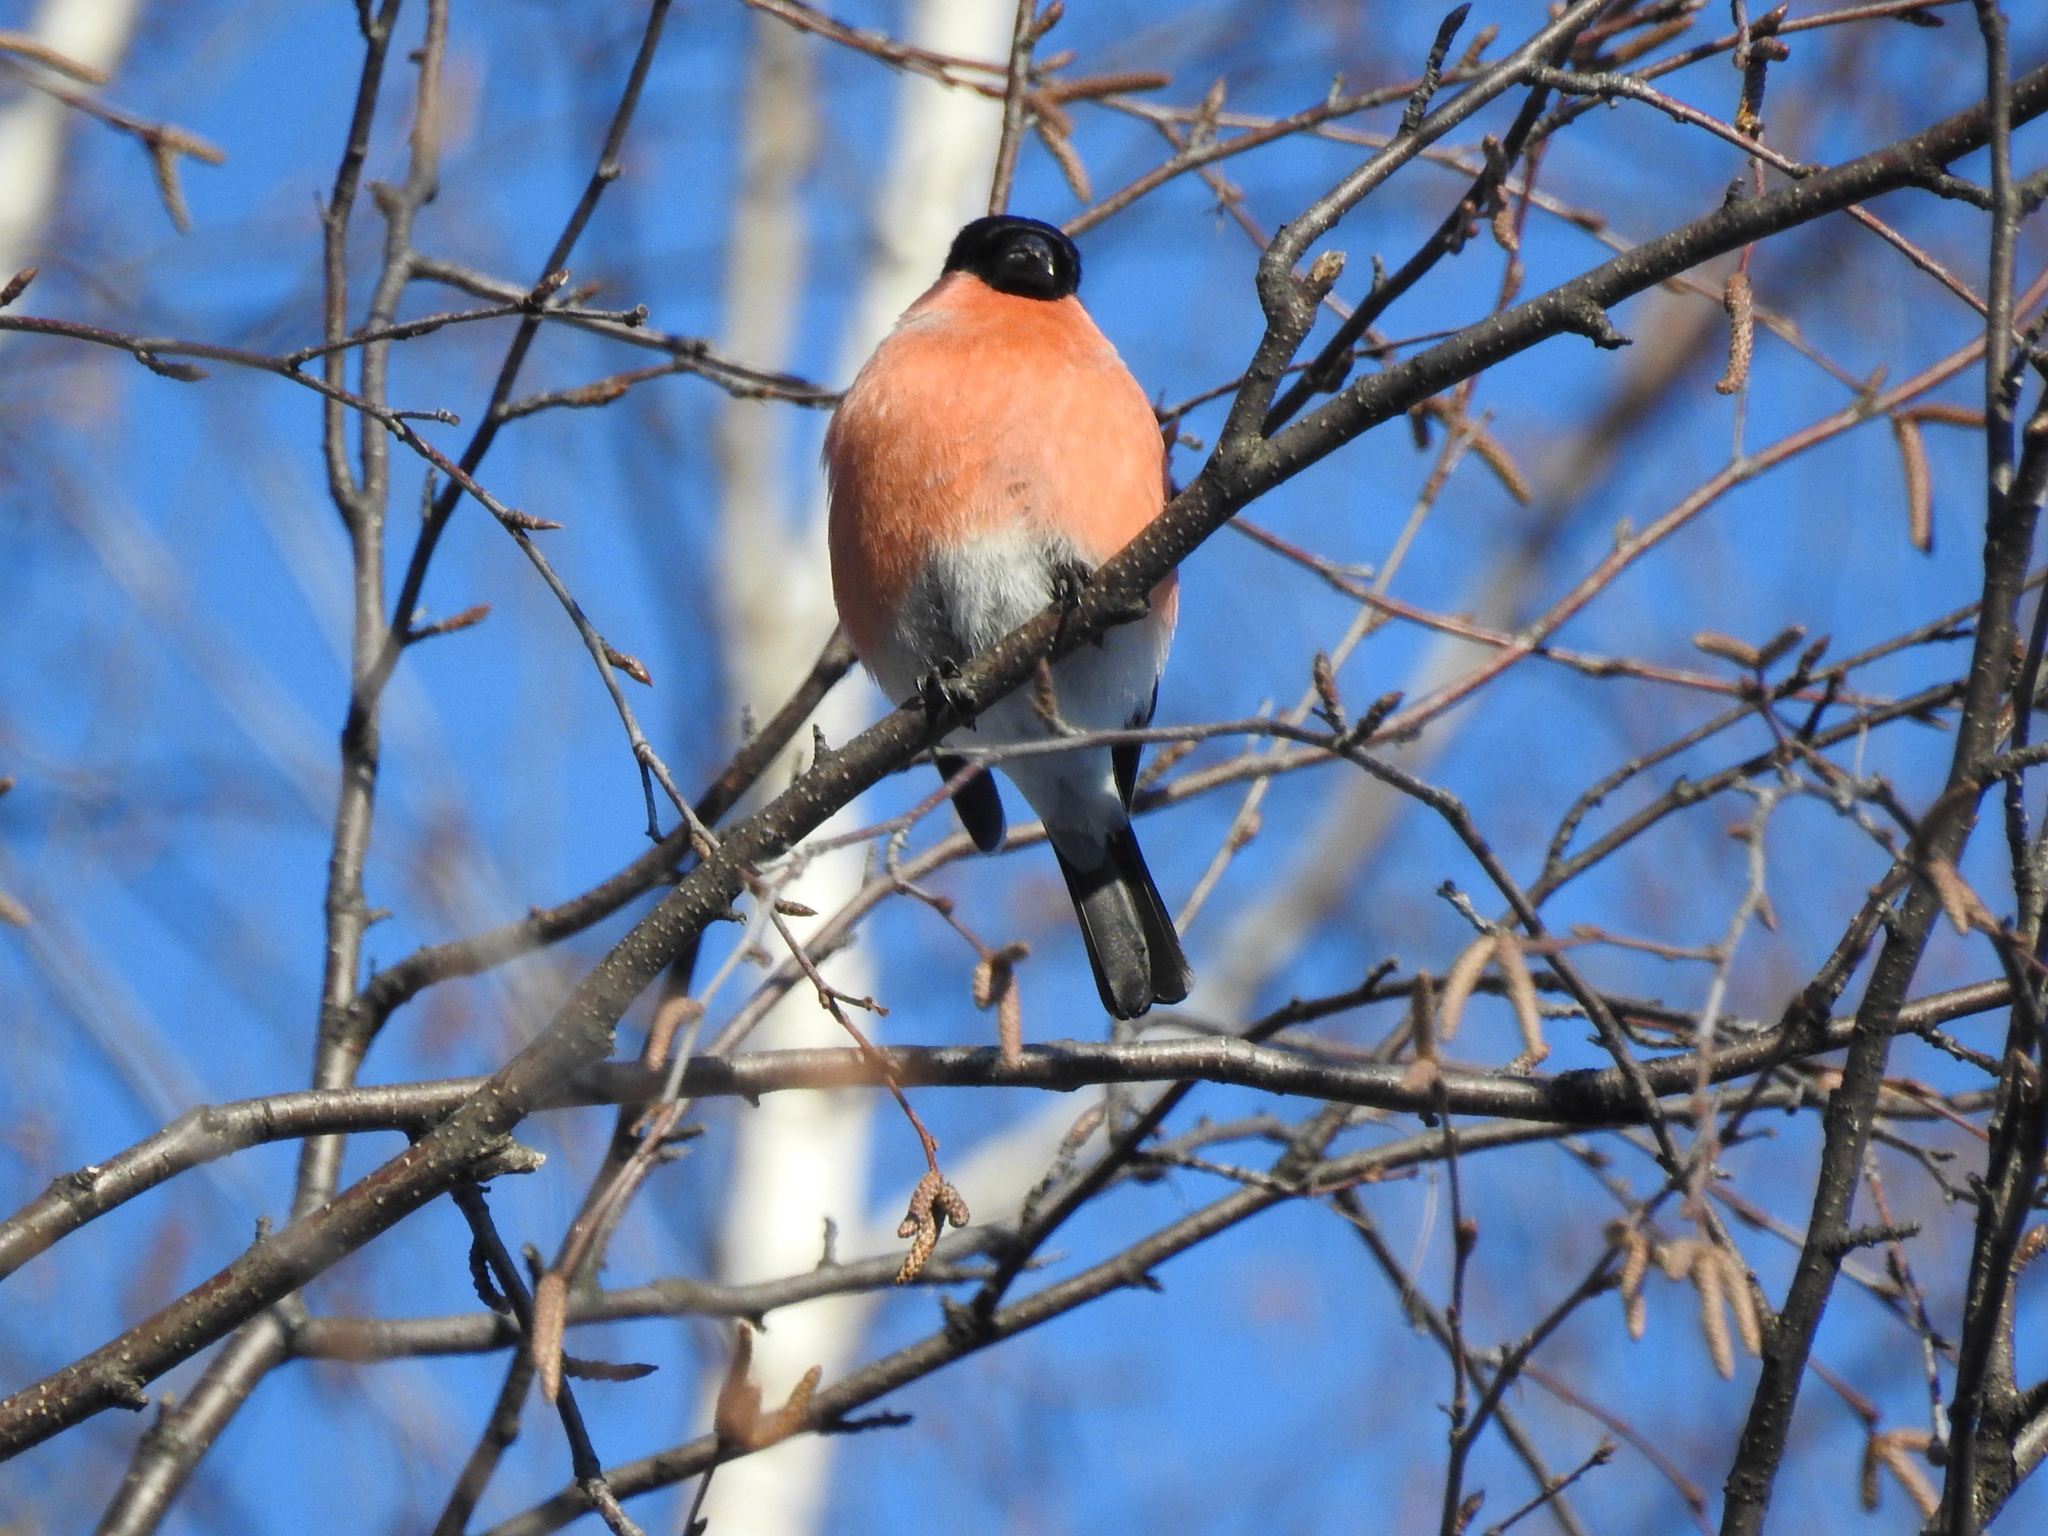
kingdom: Animalia
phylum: Chordata
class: Aves
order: Passeriformes
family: Fringillidae
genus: Pyrrhula
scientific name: Pyrrhula pyrrhula
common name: Eurasian bullfinch
